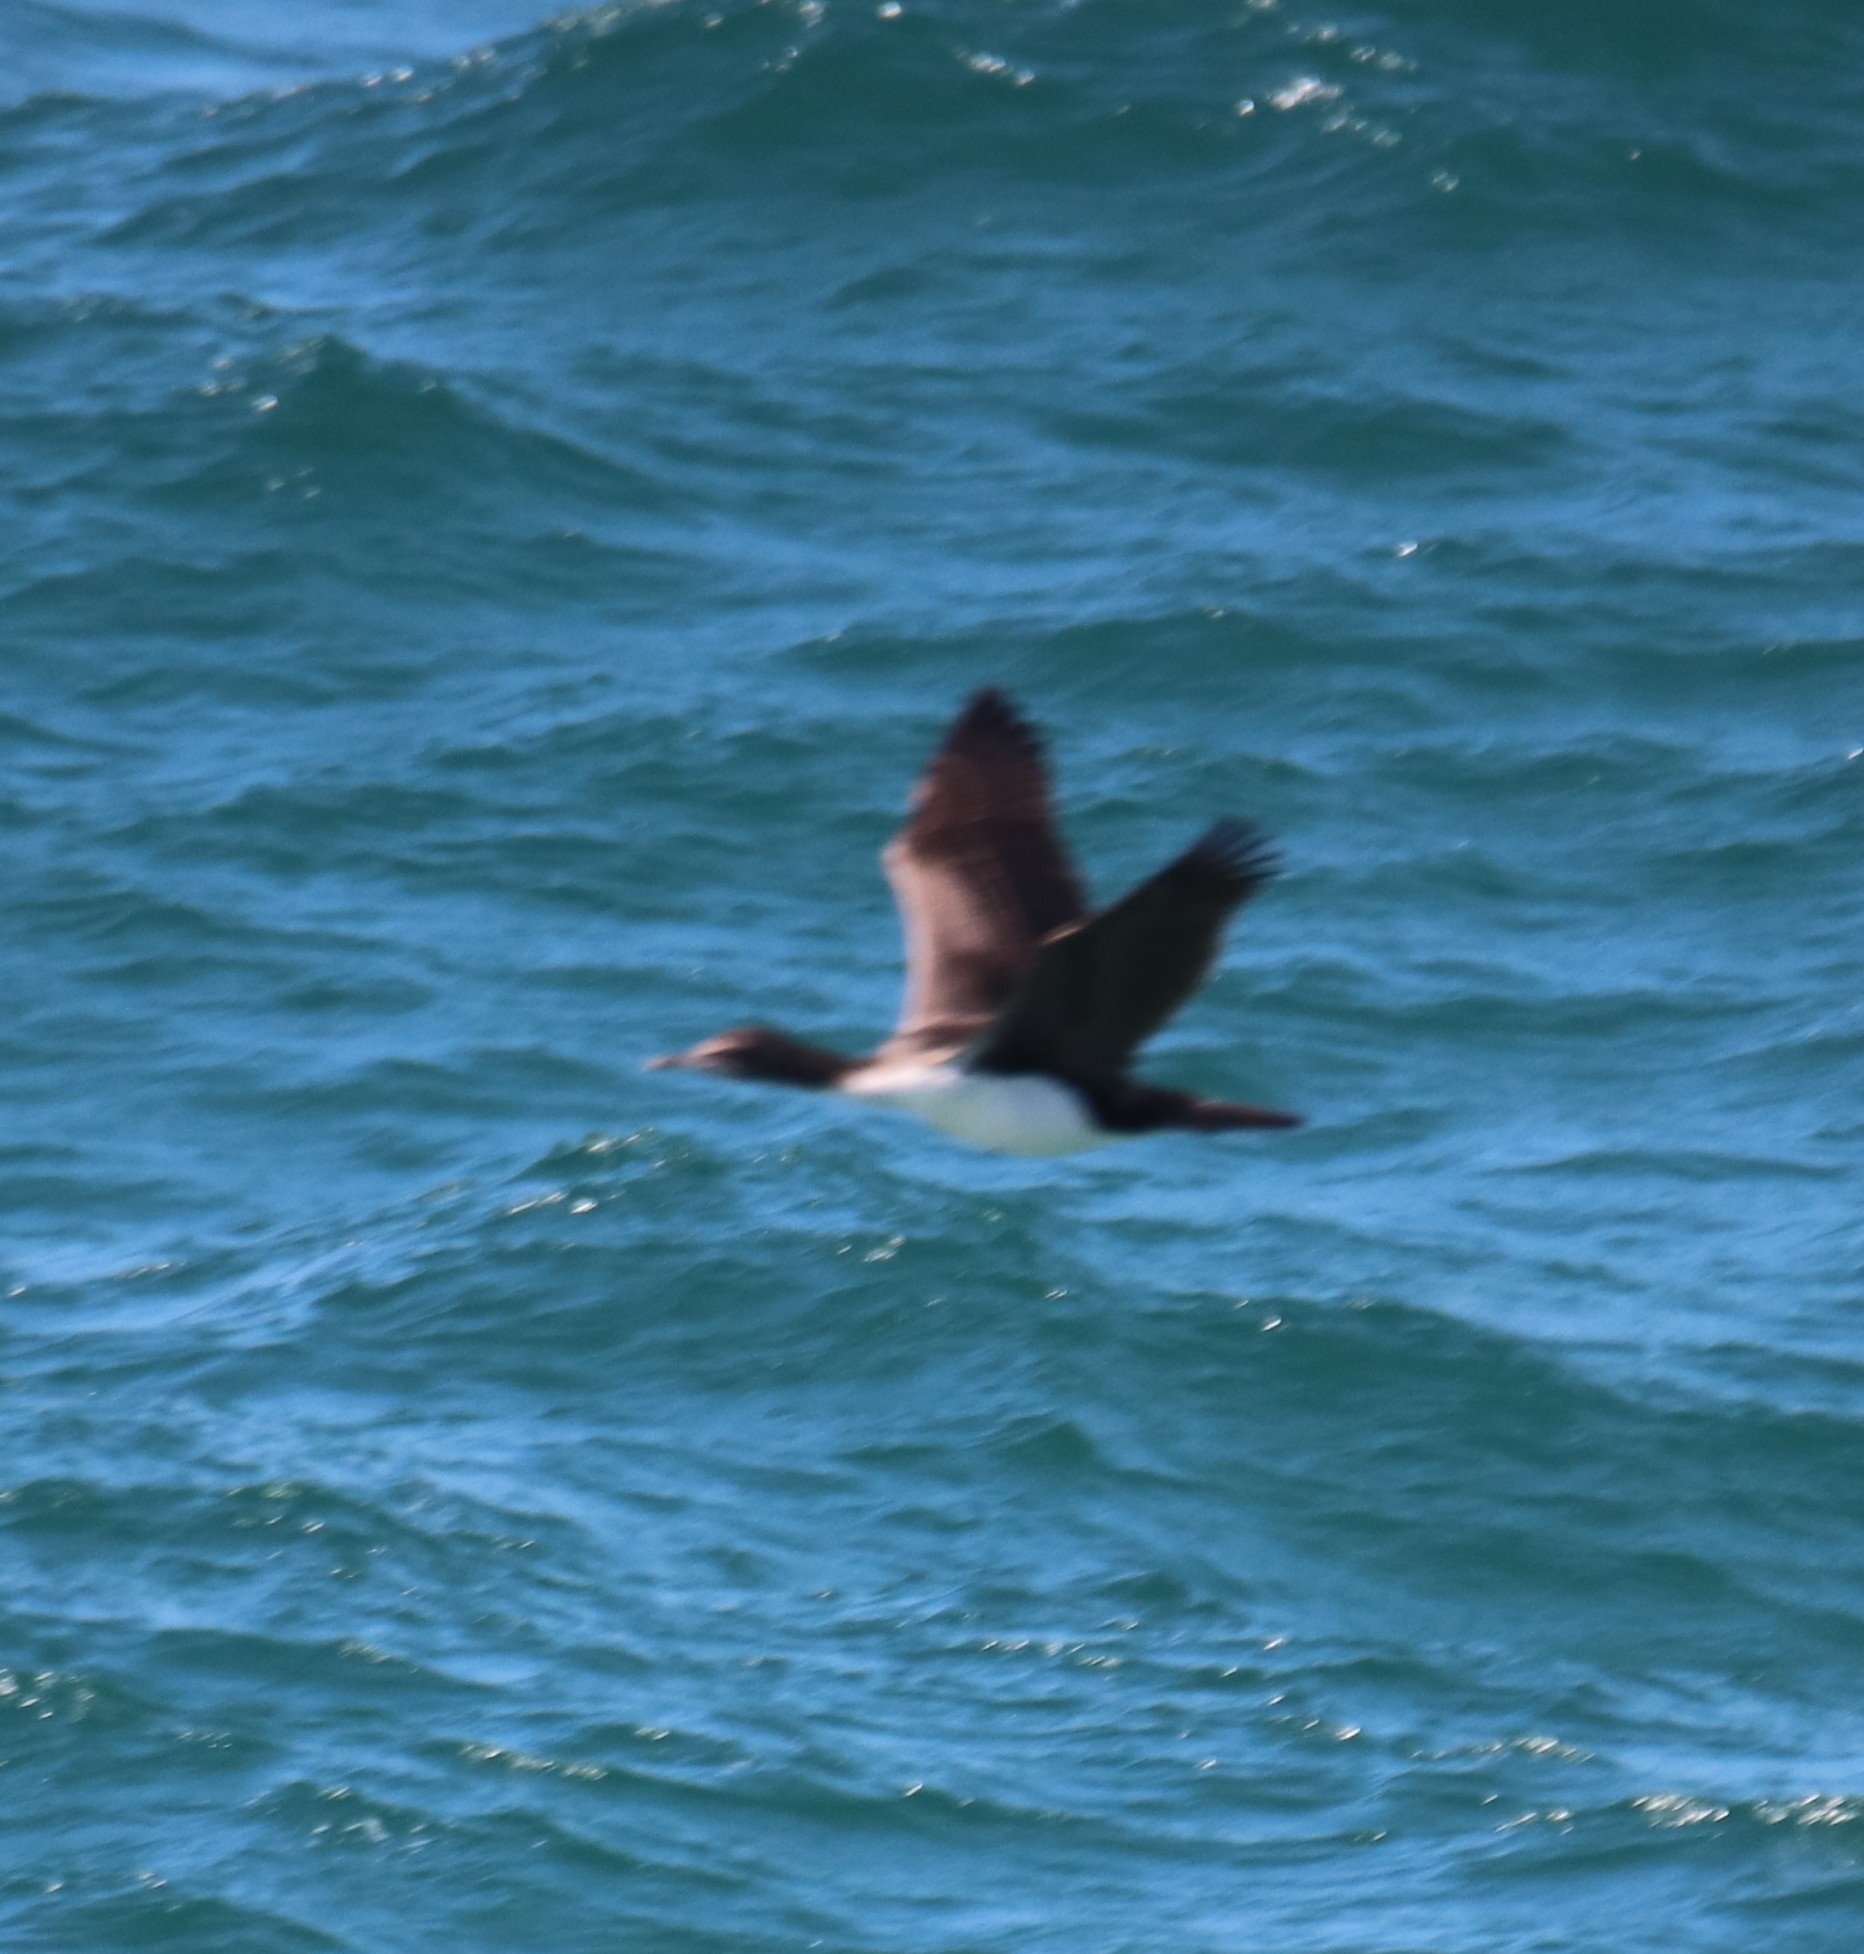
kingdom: Animalia
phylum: Chordata
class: Aves
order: Suliformes
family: Phalacrocoracidae
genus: Leucocarbo
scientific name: Leucocarbo chalconotus
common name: Stewart shag
